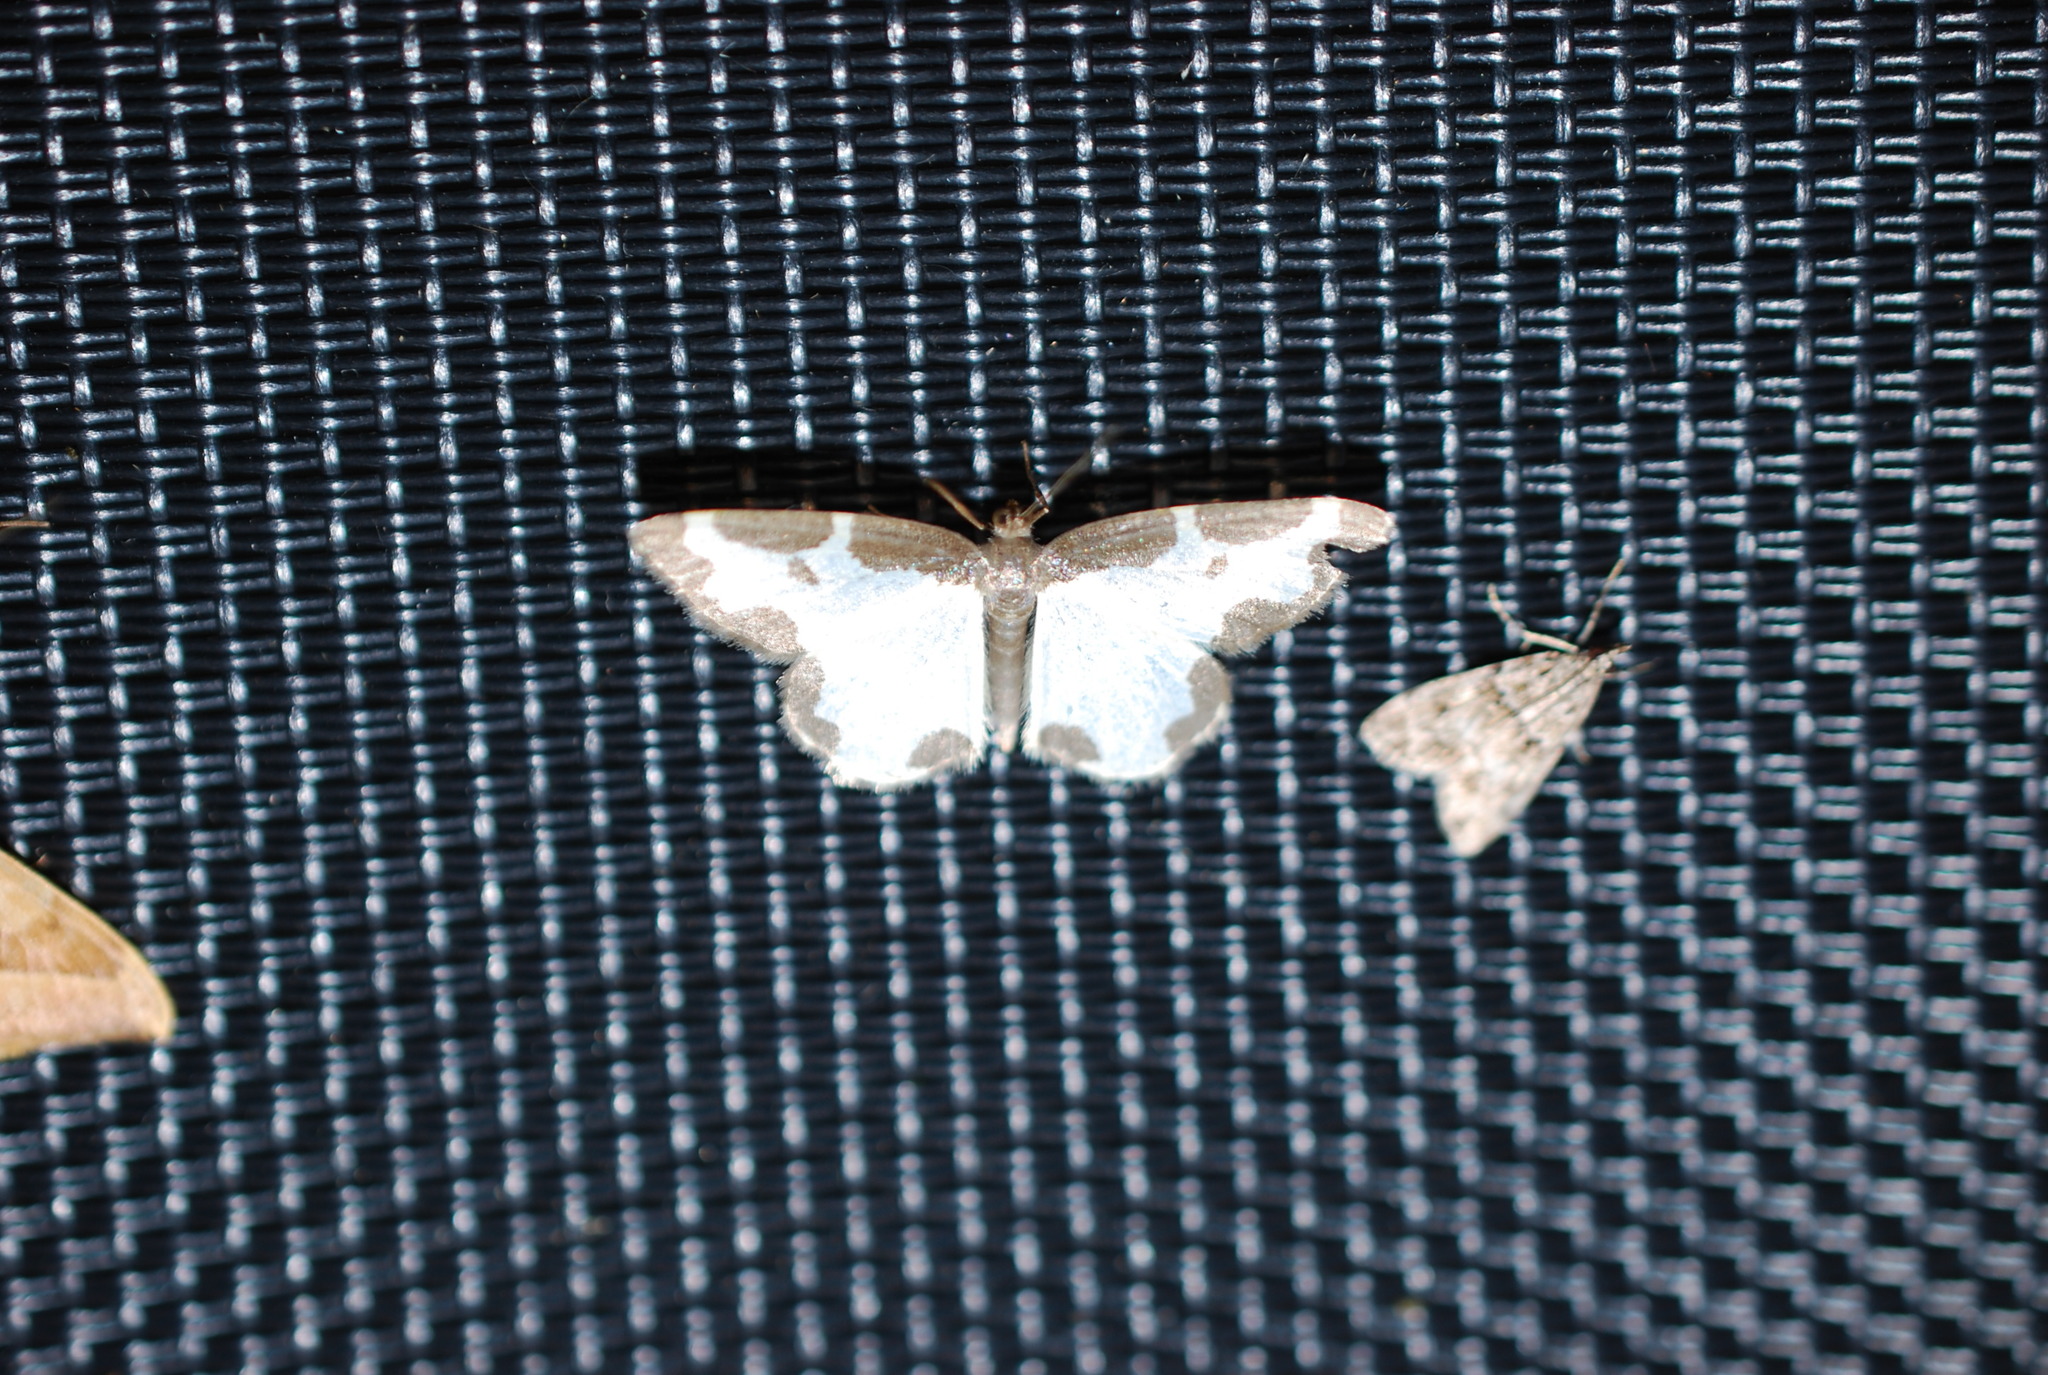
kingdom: Animalia
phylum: Arthropoda
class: Insecta
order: Lepidoptera
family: Geometridae
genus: Lomaspilis
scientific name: Lomaspilis marginata
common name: Clouded border
